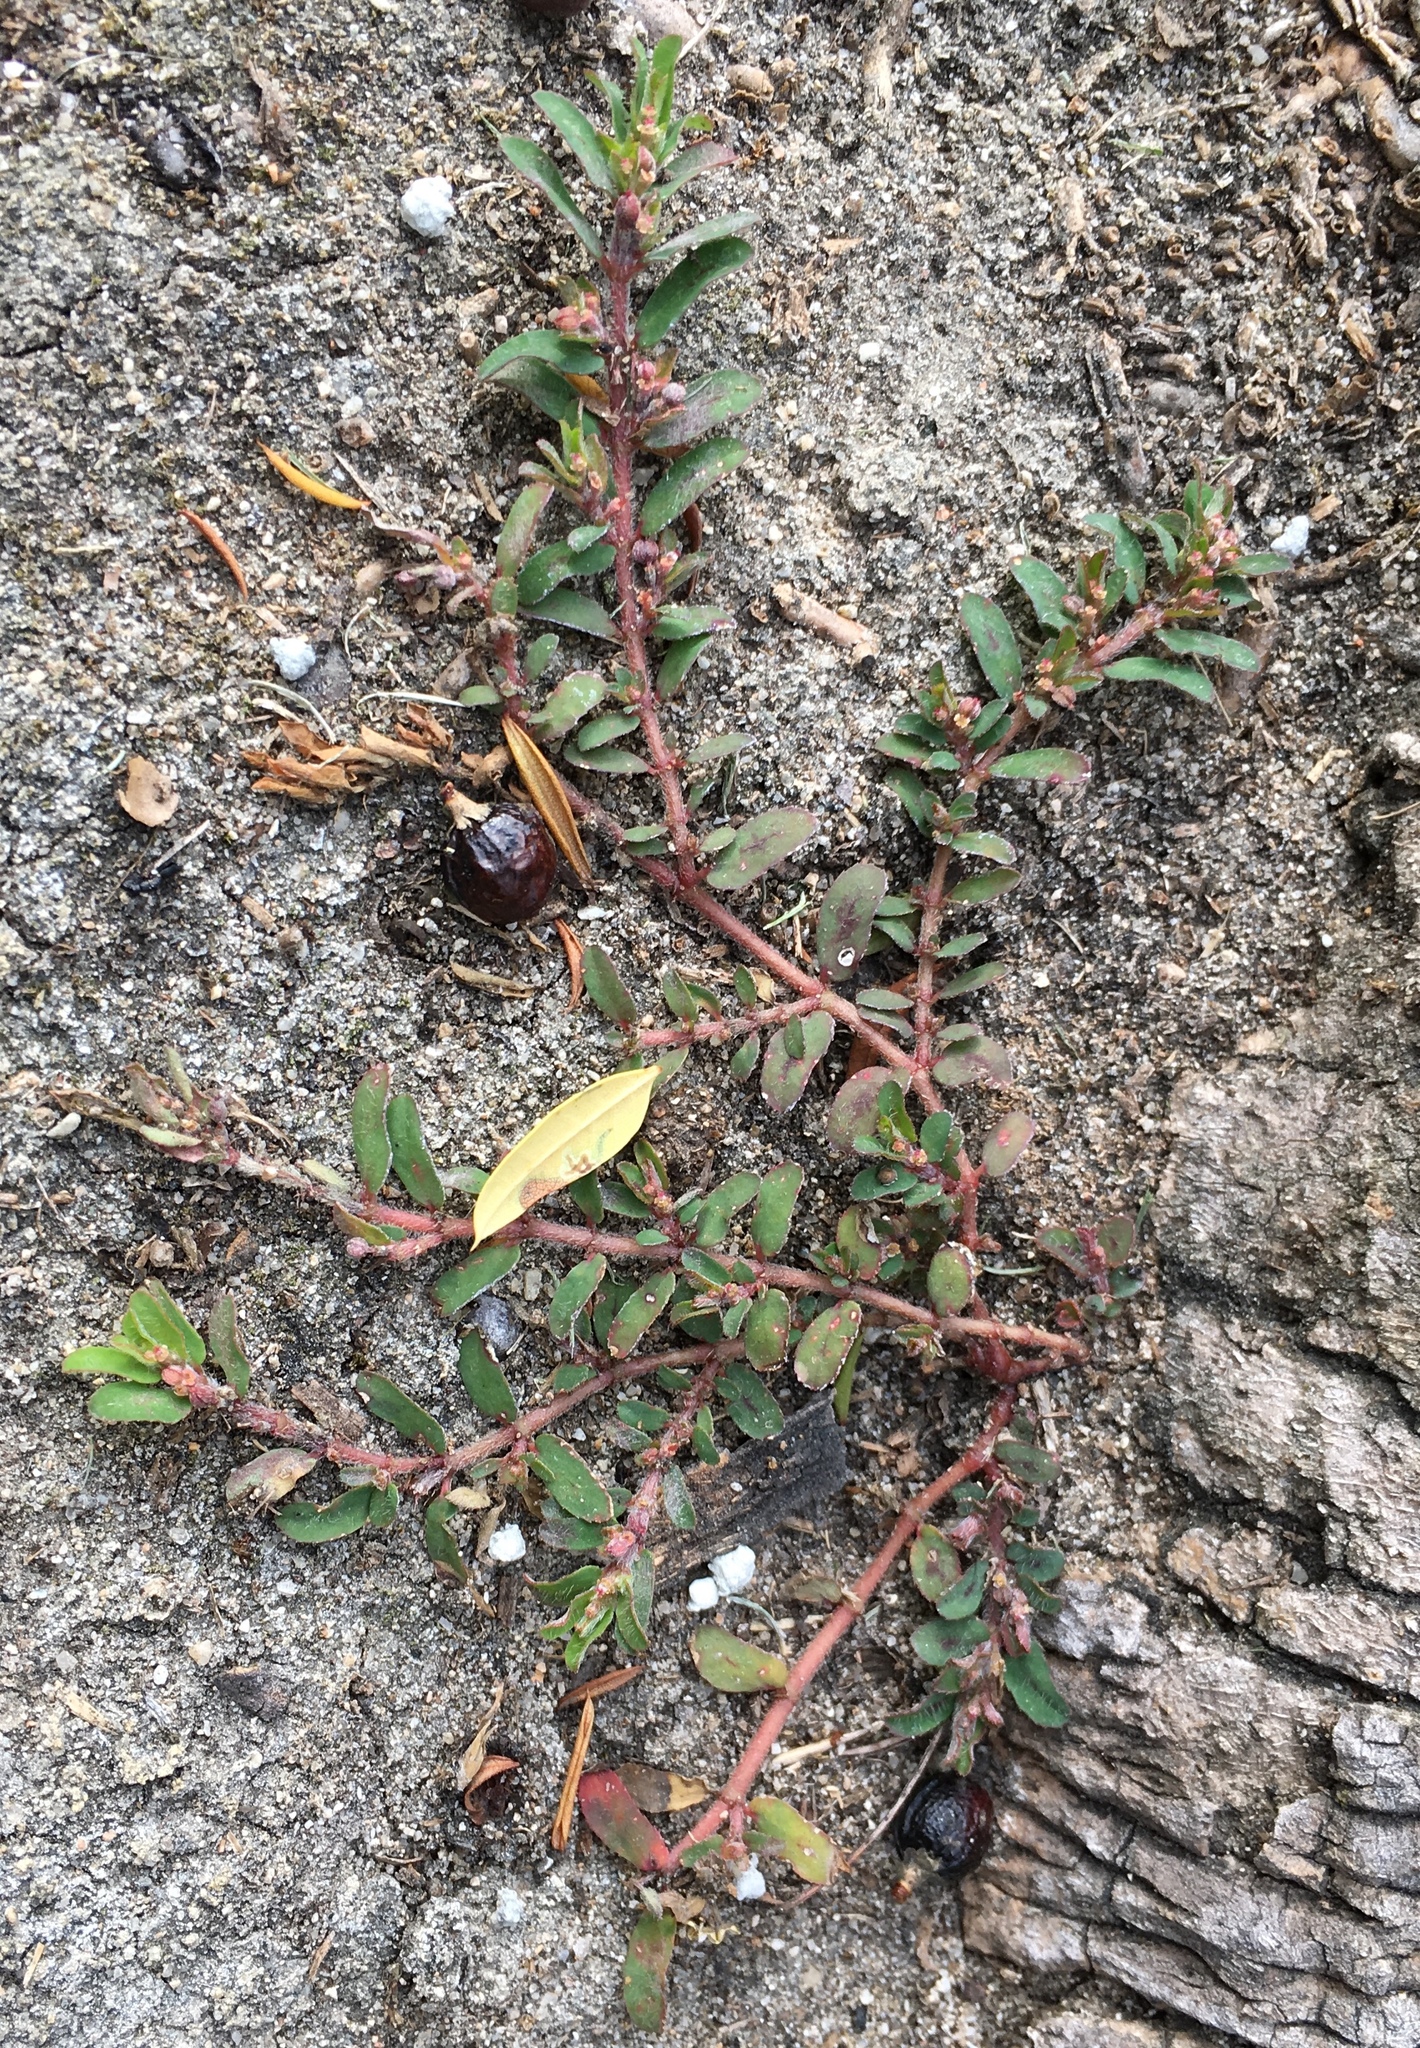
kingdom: Plantae
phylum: Tracheophyta
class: Magnoliopsida
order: Malpighiales
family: Euphorbiaceae
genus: Euphorbia
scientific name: Euphorbia maculata
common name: Spotted spurge
